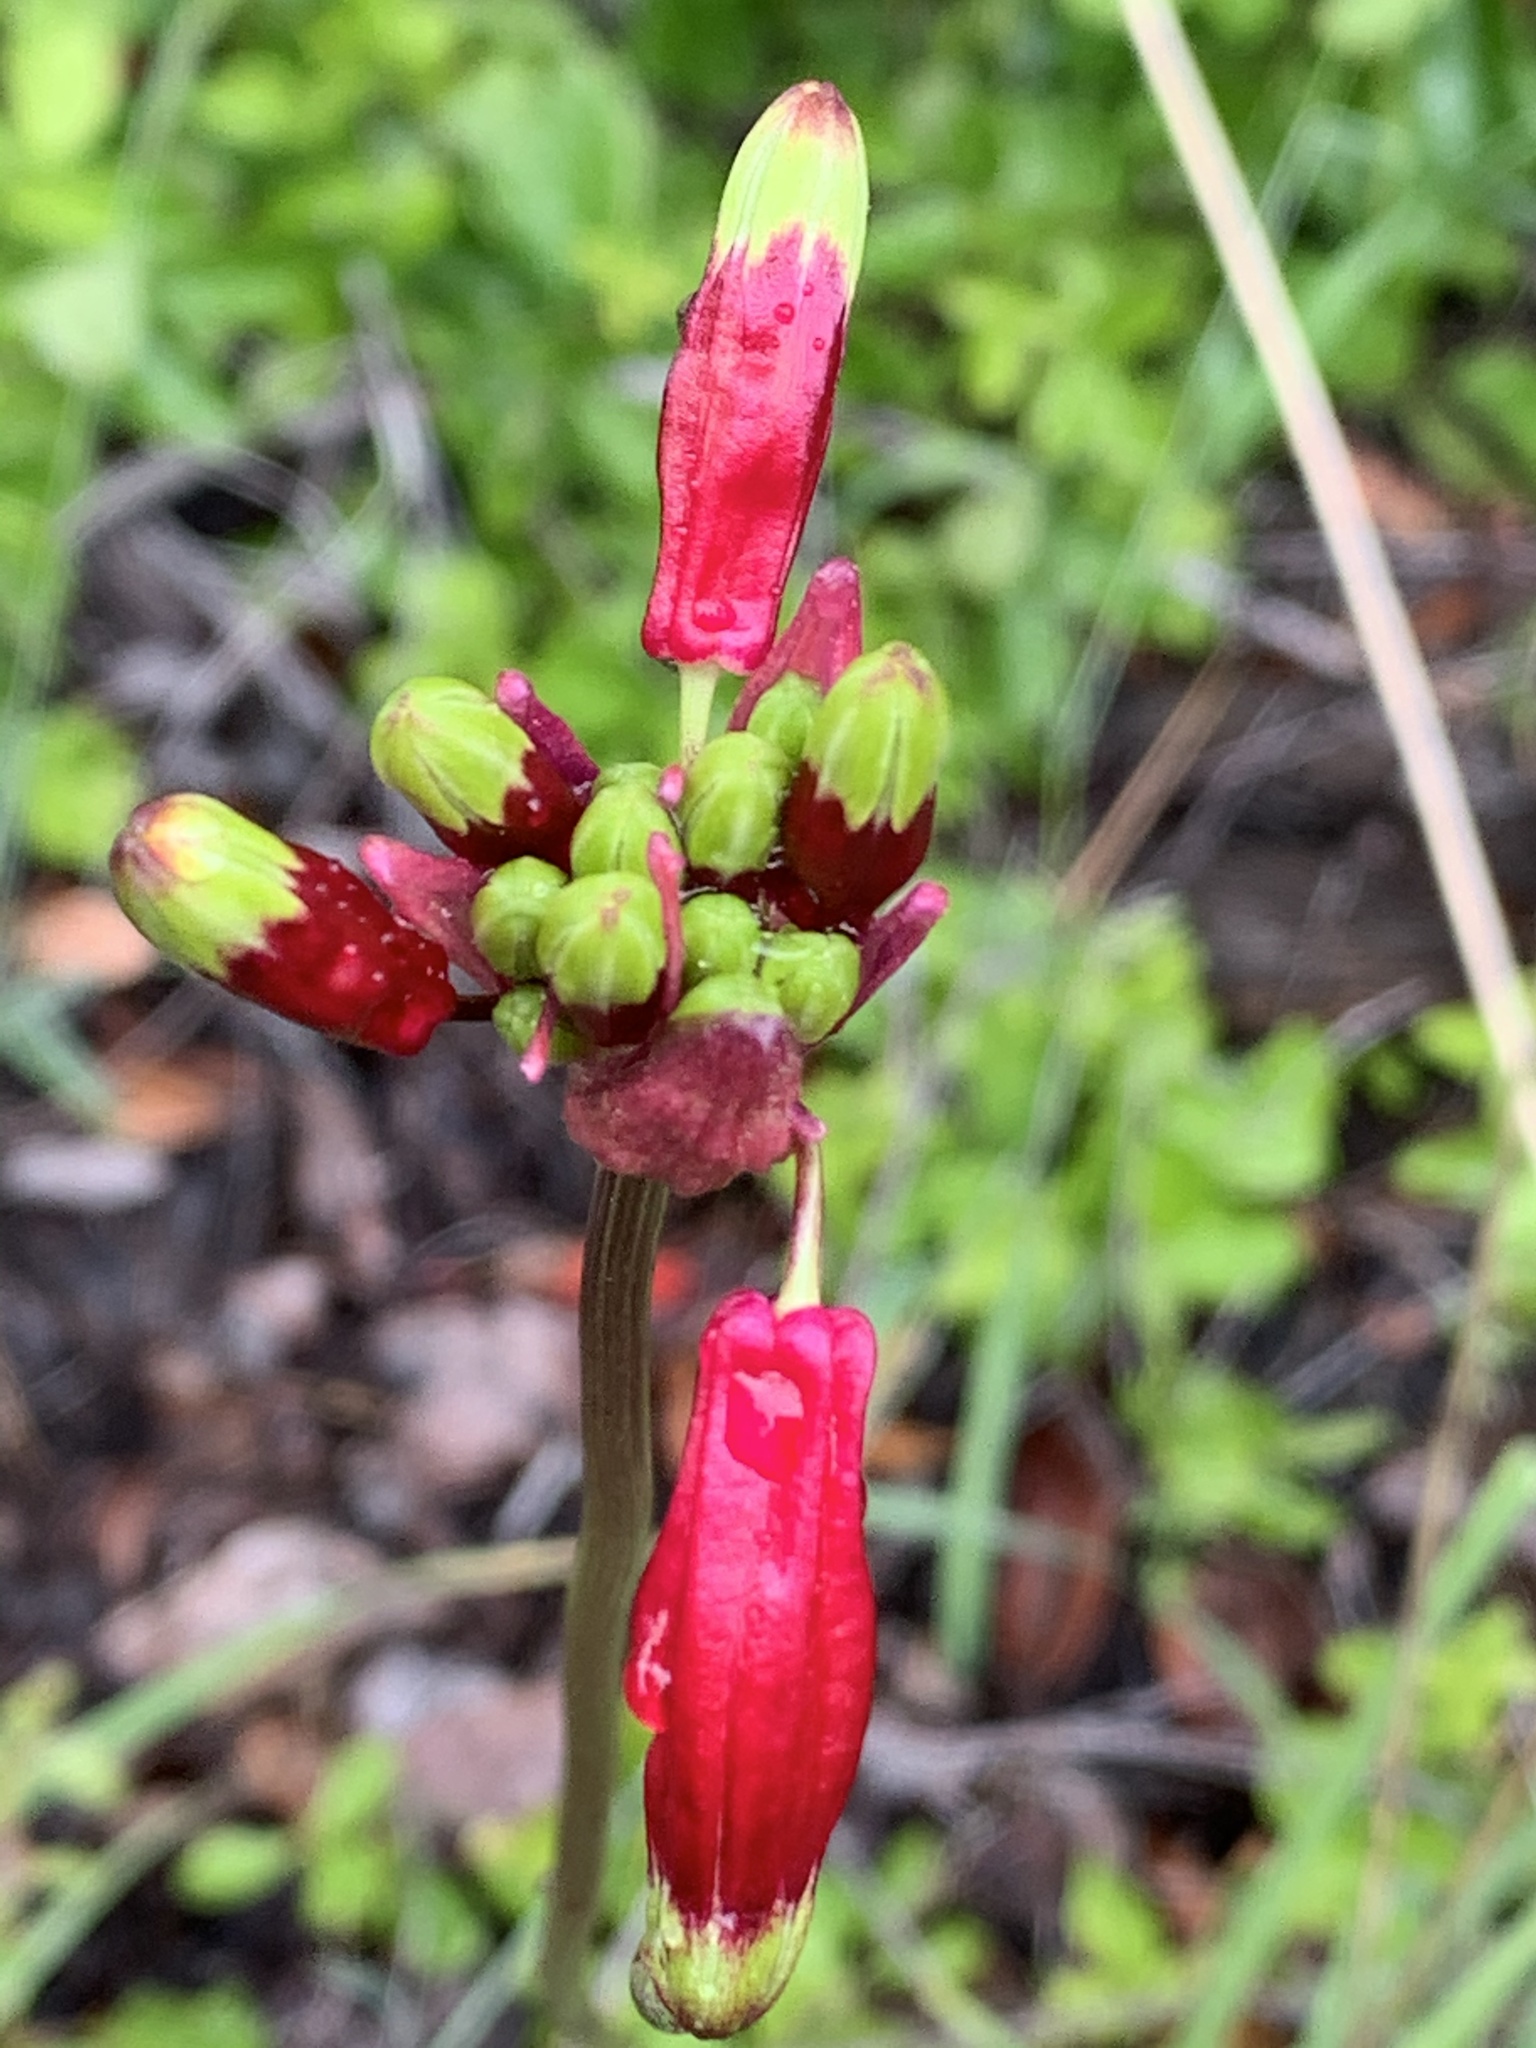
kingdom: Plantae
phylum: Tracheophyta
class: Liliopsida
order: Asparagales
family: Asparagaceae
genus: Dichelostemma
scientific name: Dichelostemma ida-maia
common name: Firecracker-flower
